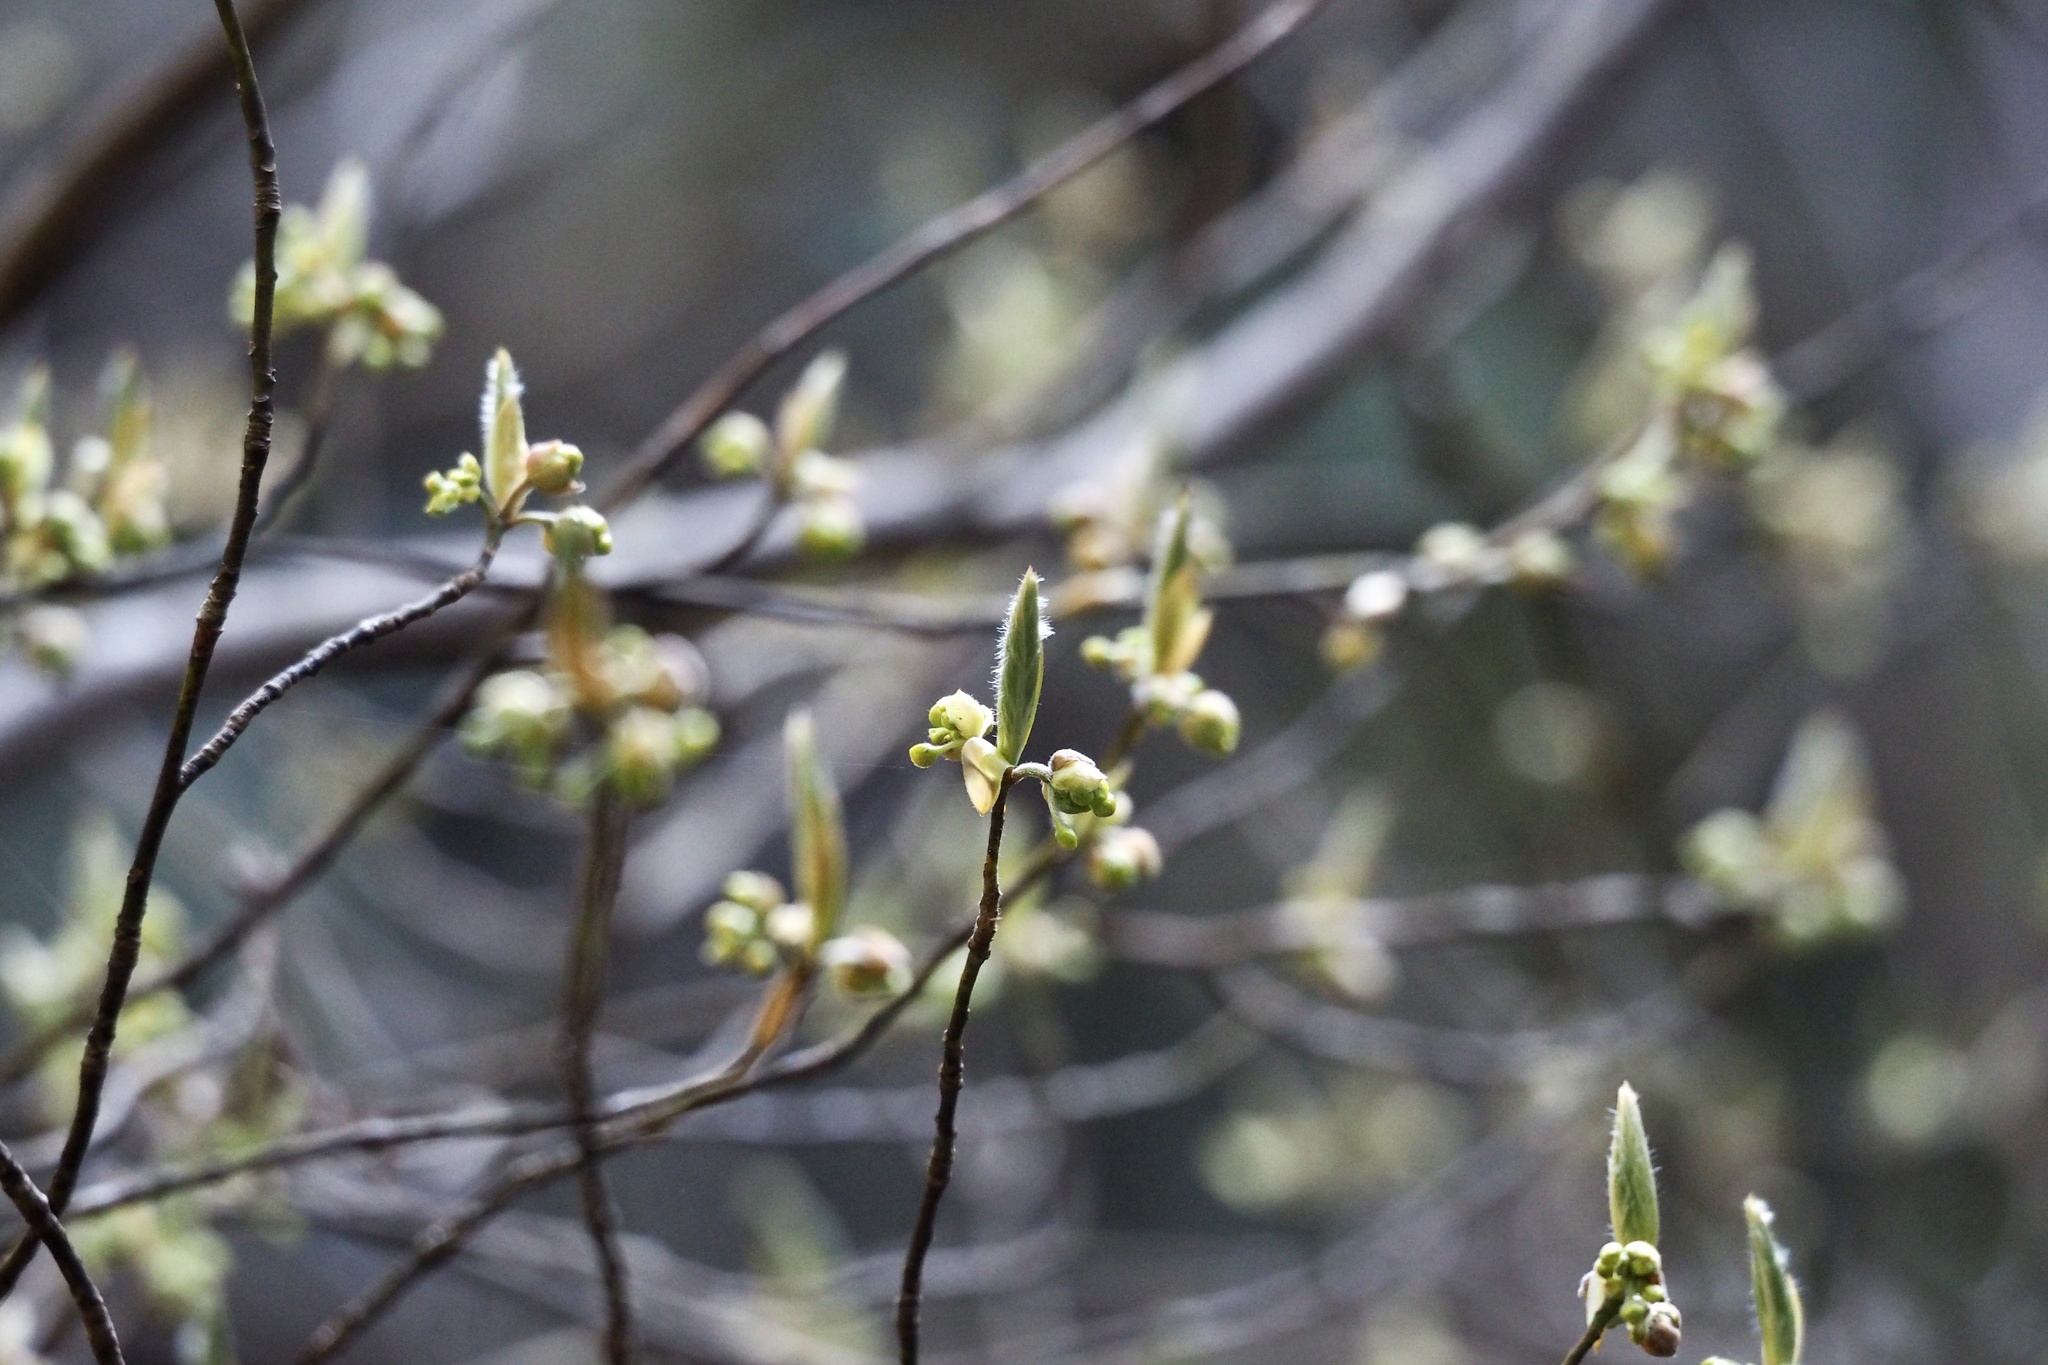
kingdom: Plantae
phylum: Tracheophyta
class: Magnoliopsida
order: Laurales
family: Lauraceae
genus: Lindera
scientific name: Lindera umbellata
